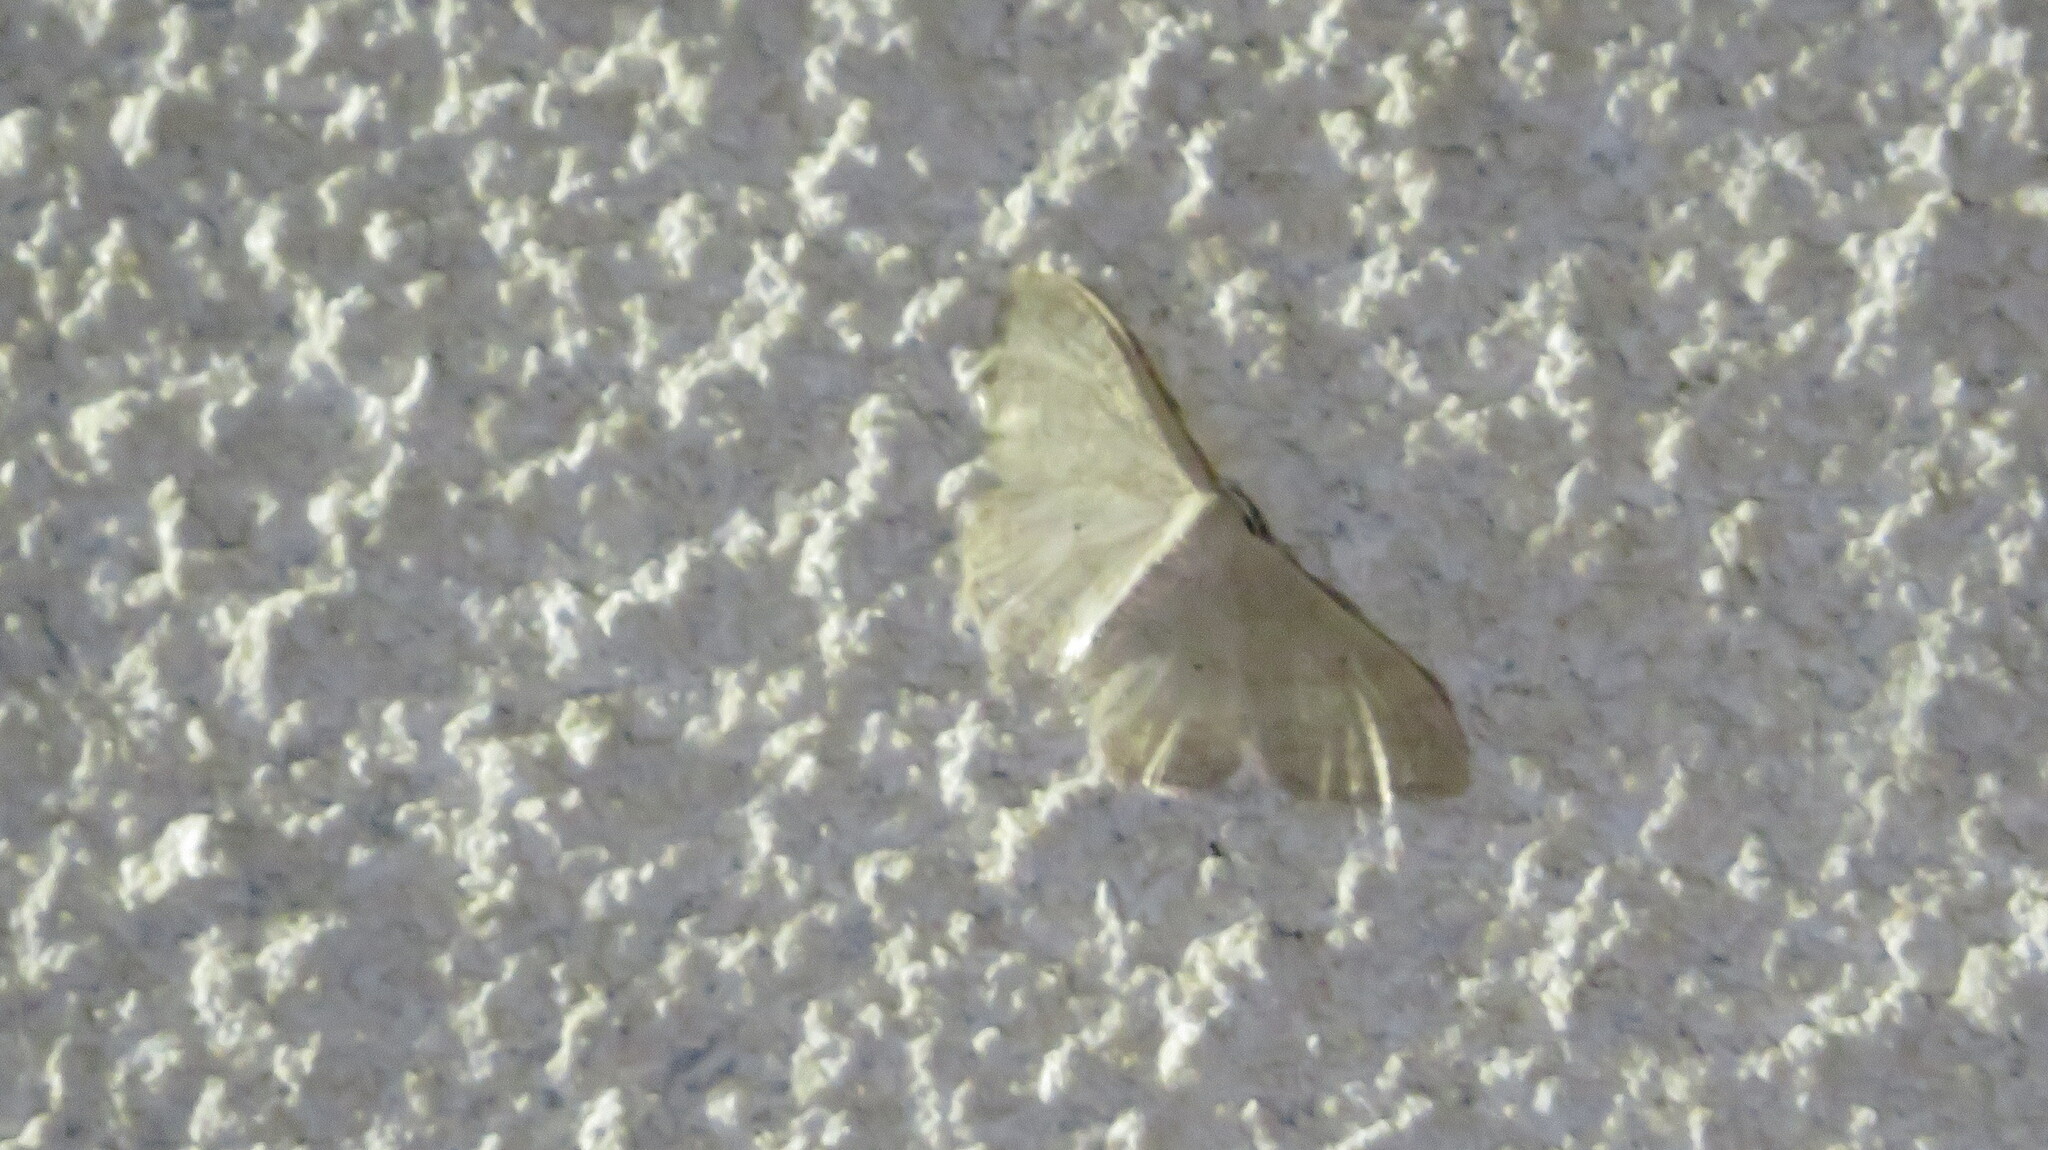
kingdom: Animalia
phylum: Arthropoda
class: Insecta
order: Lepidoptera
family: Geometridae
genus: Idaea
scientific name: Idaea straminata
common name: Plain wave
